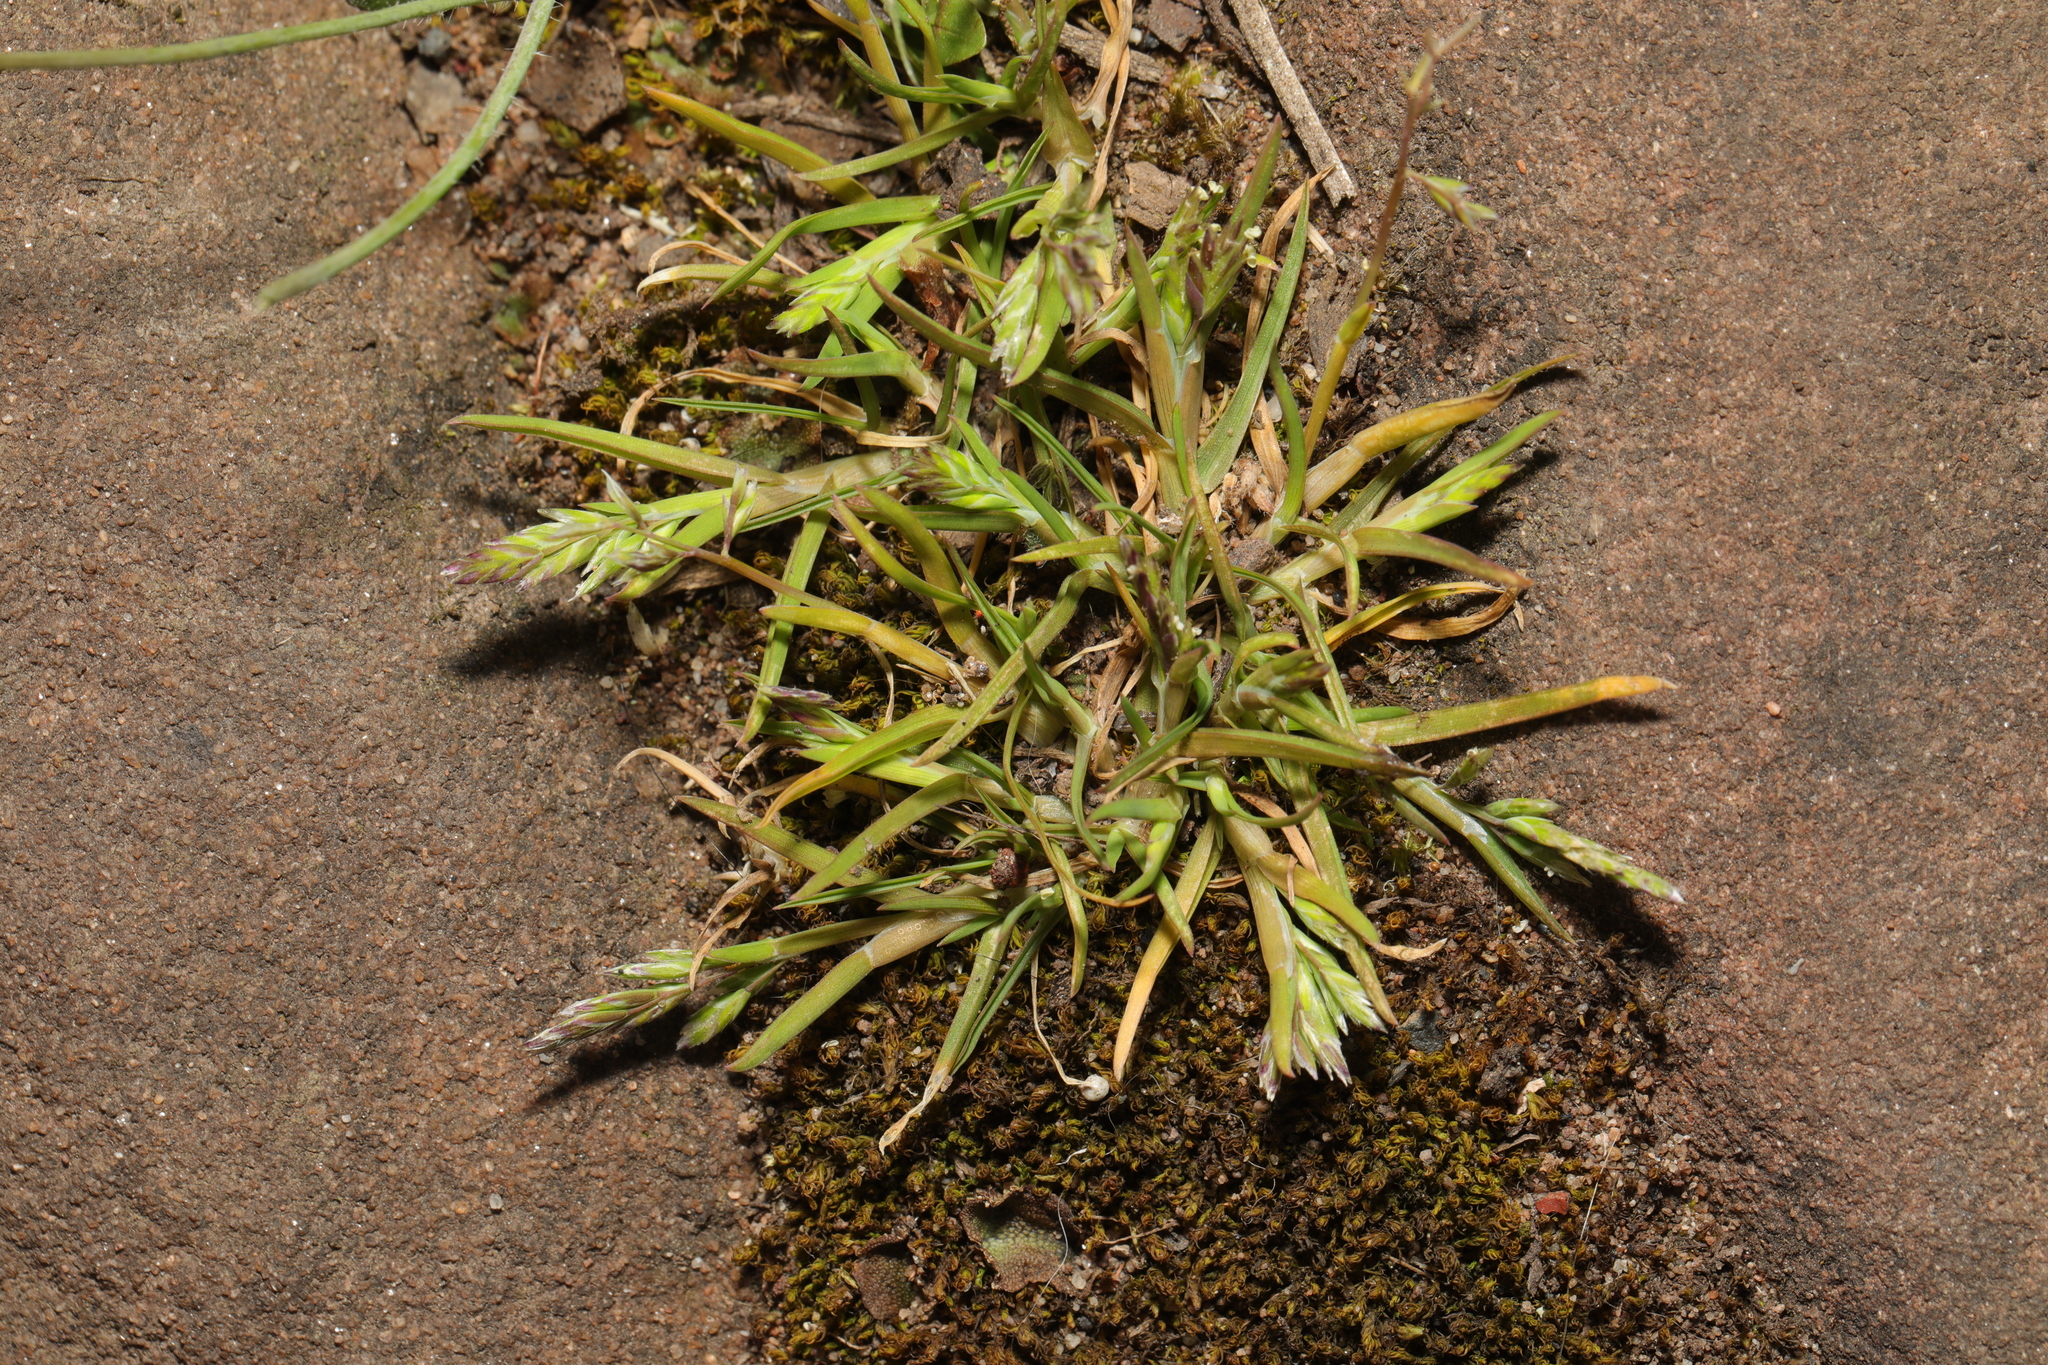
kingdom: Plantae
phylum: Tracheophyta
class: Liliopsida
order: Poales
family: Poaceae
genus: Poa
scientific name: Poa annua
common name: Annual bluegrass
